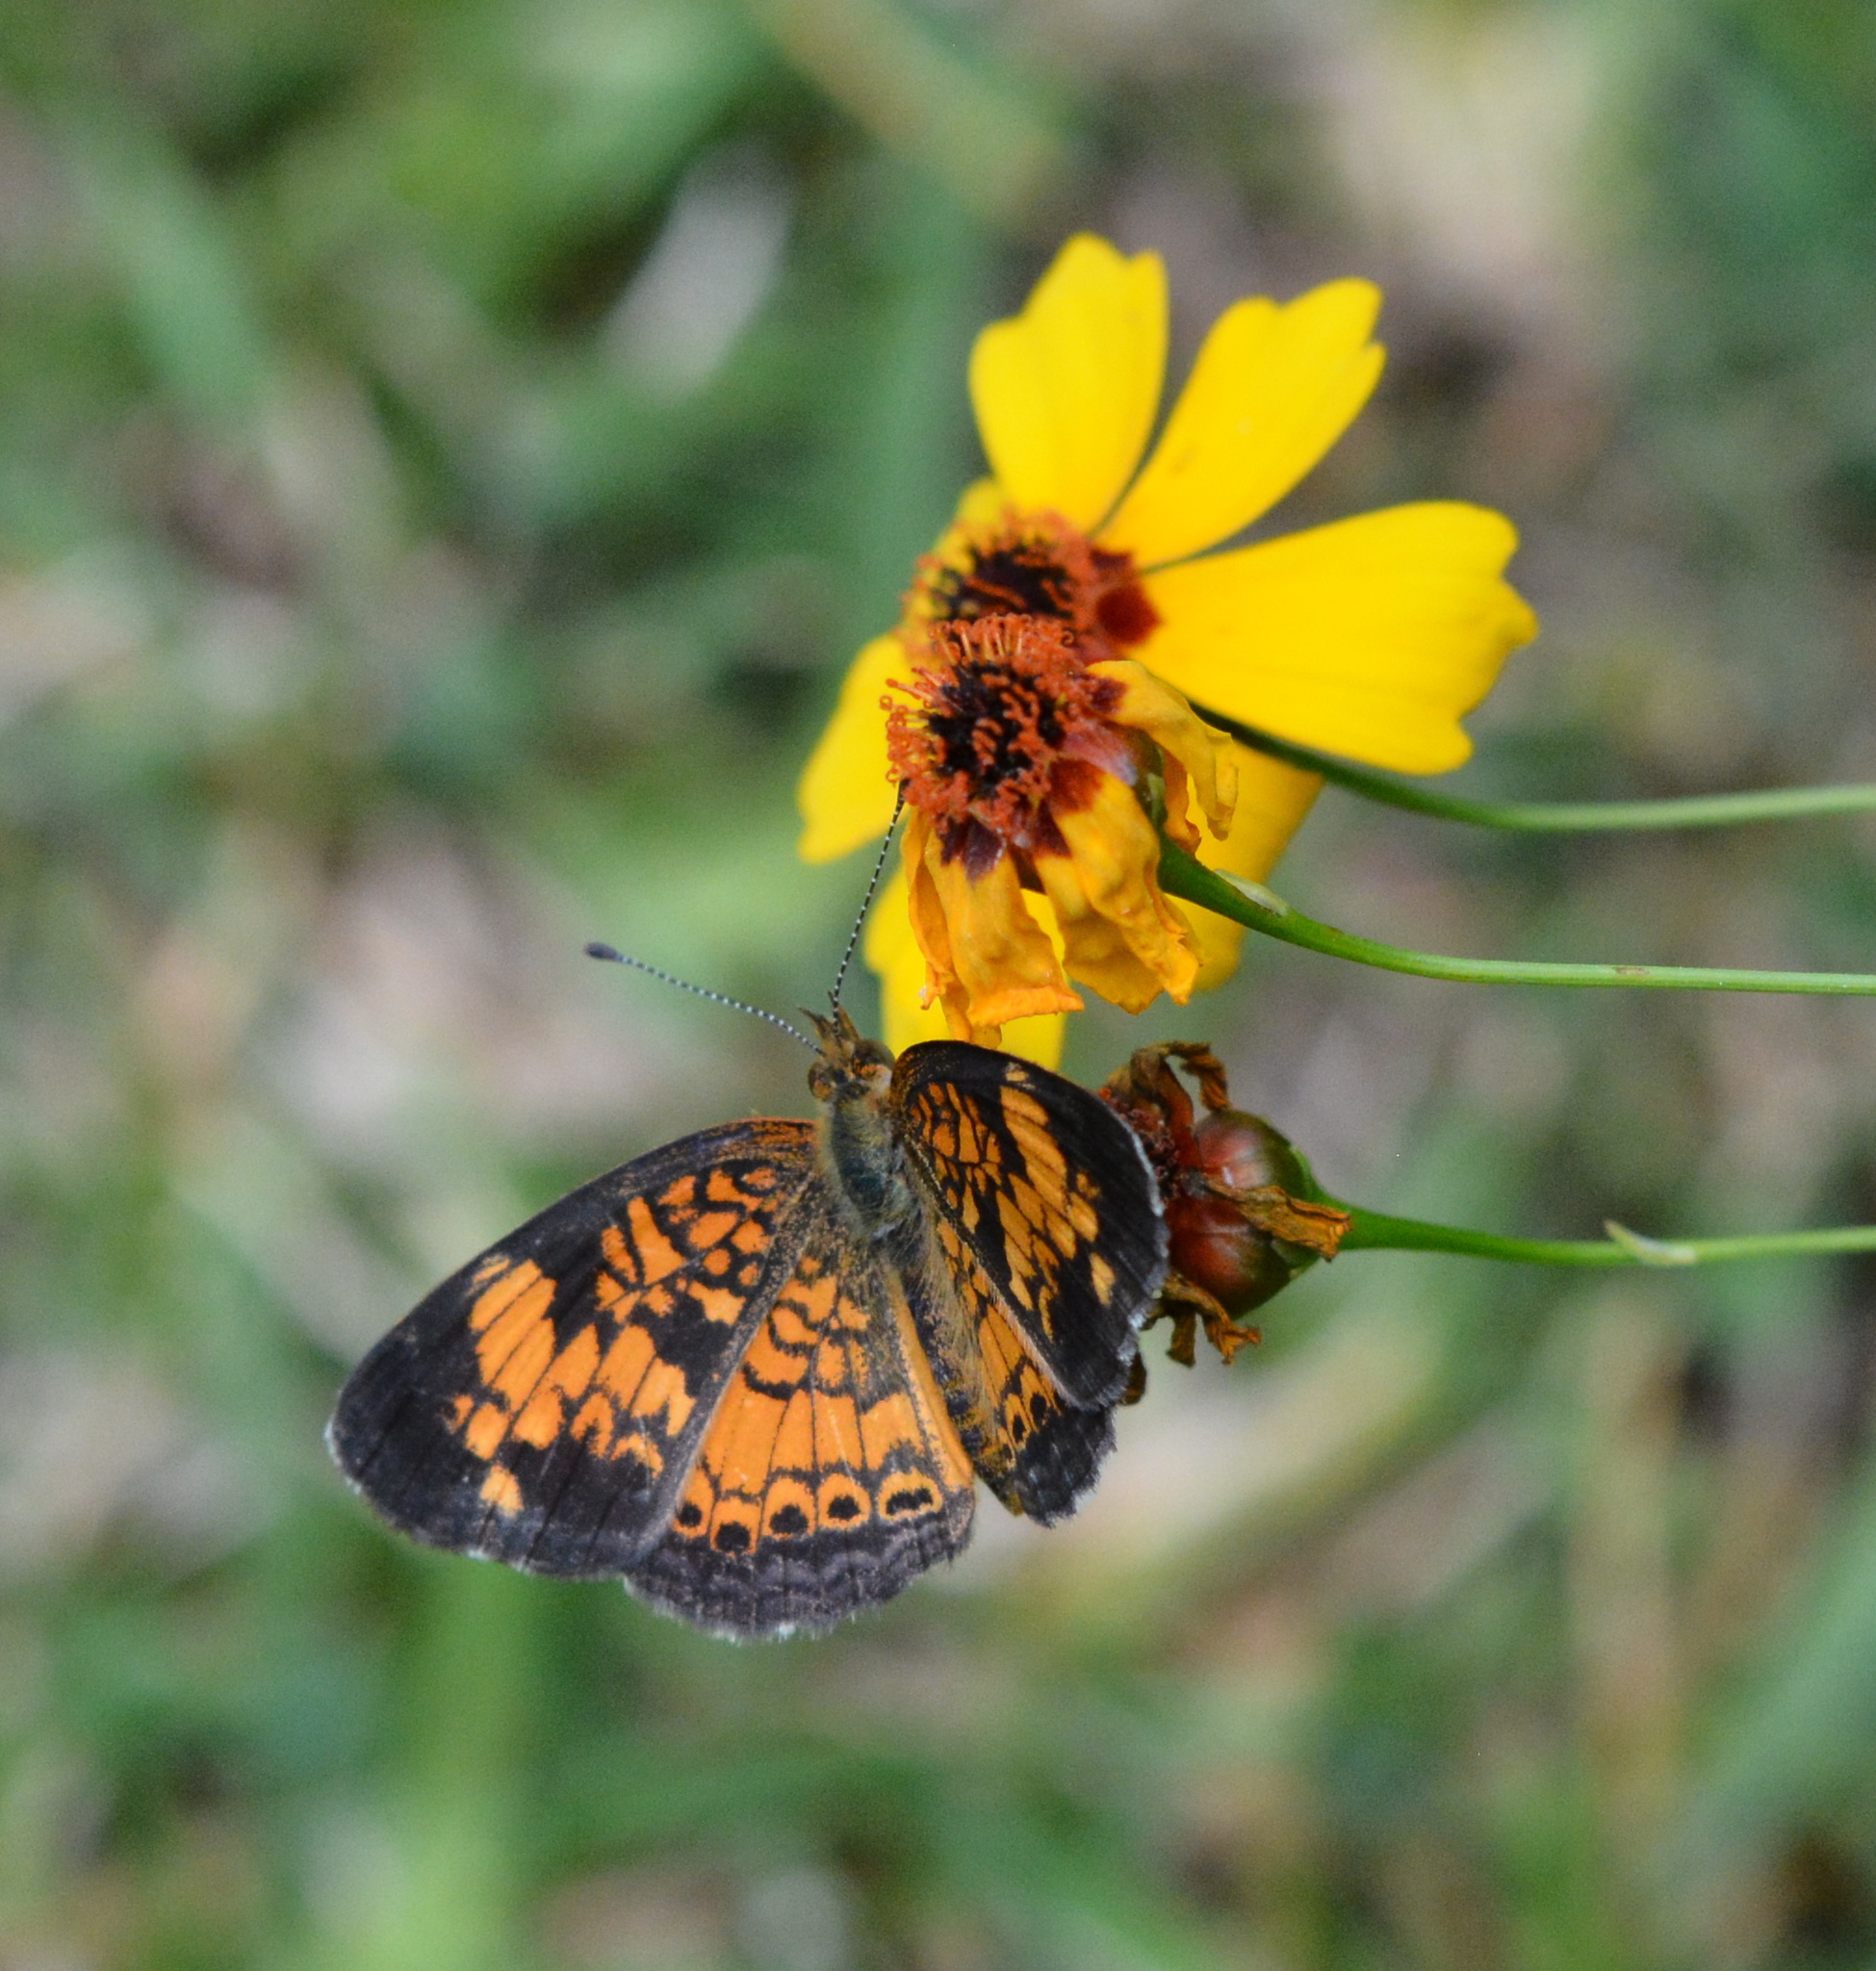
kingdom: Animalia
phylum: Arthropoda
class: Insecta
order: Lepidoptera
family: Nymphalidae
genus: Phyciodes
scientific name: Phyciodes tharos
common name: Pearl crescent
